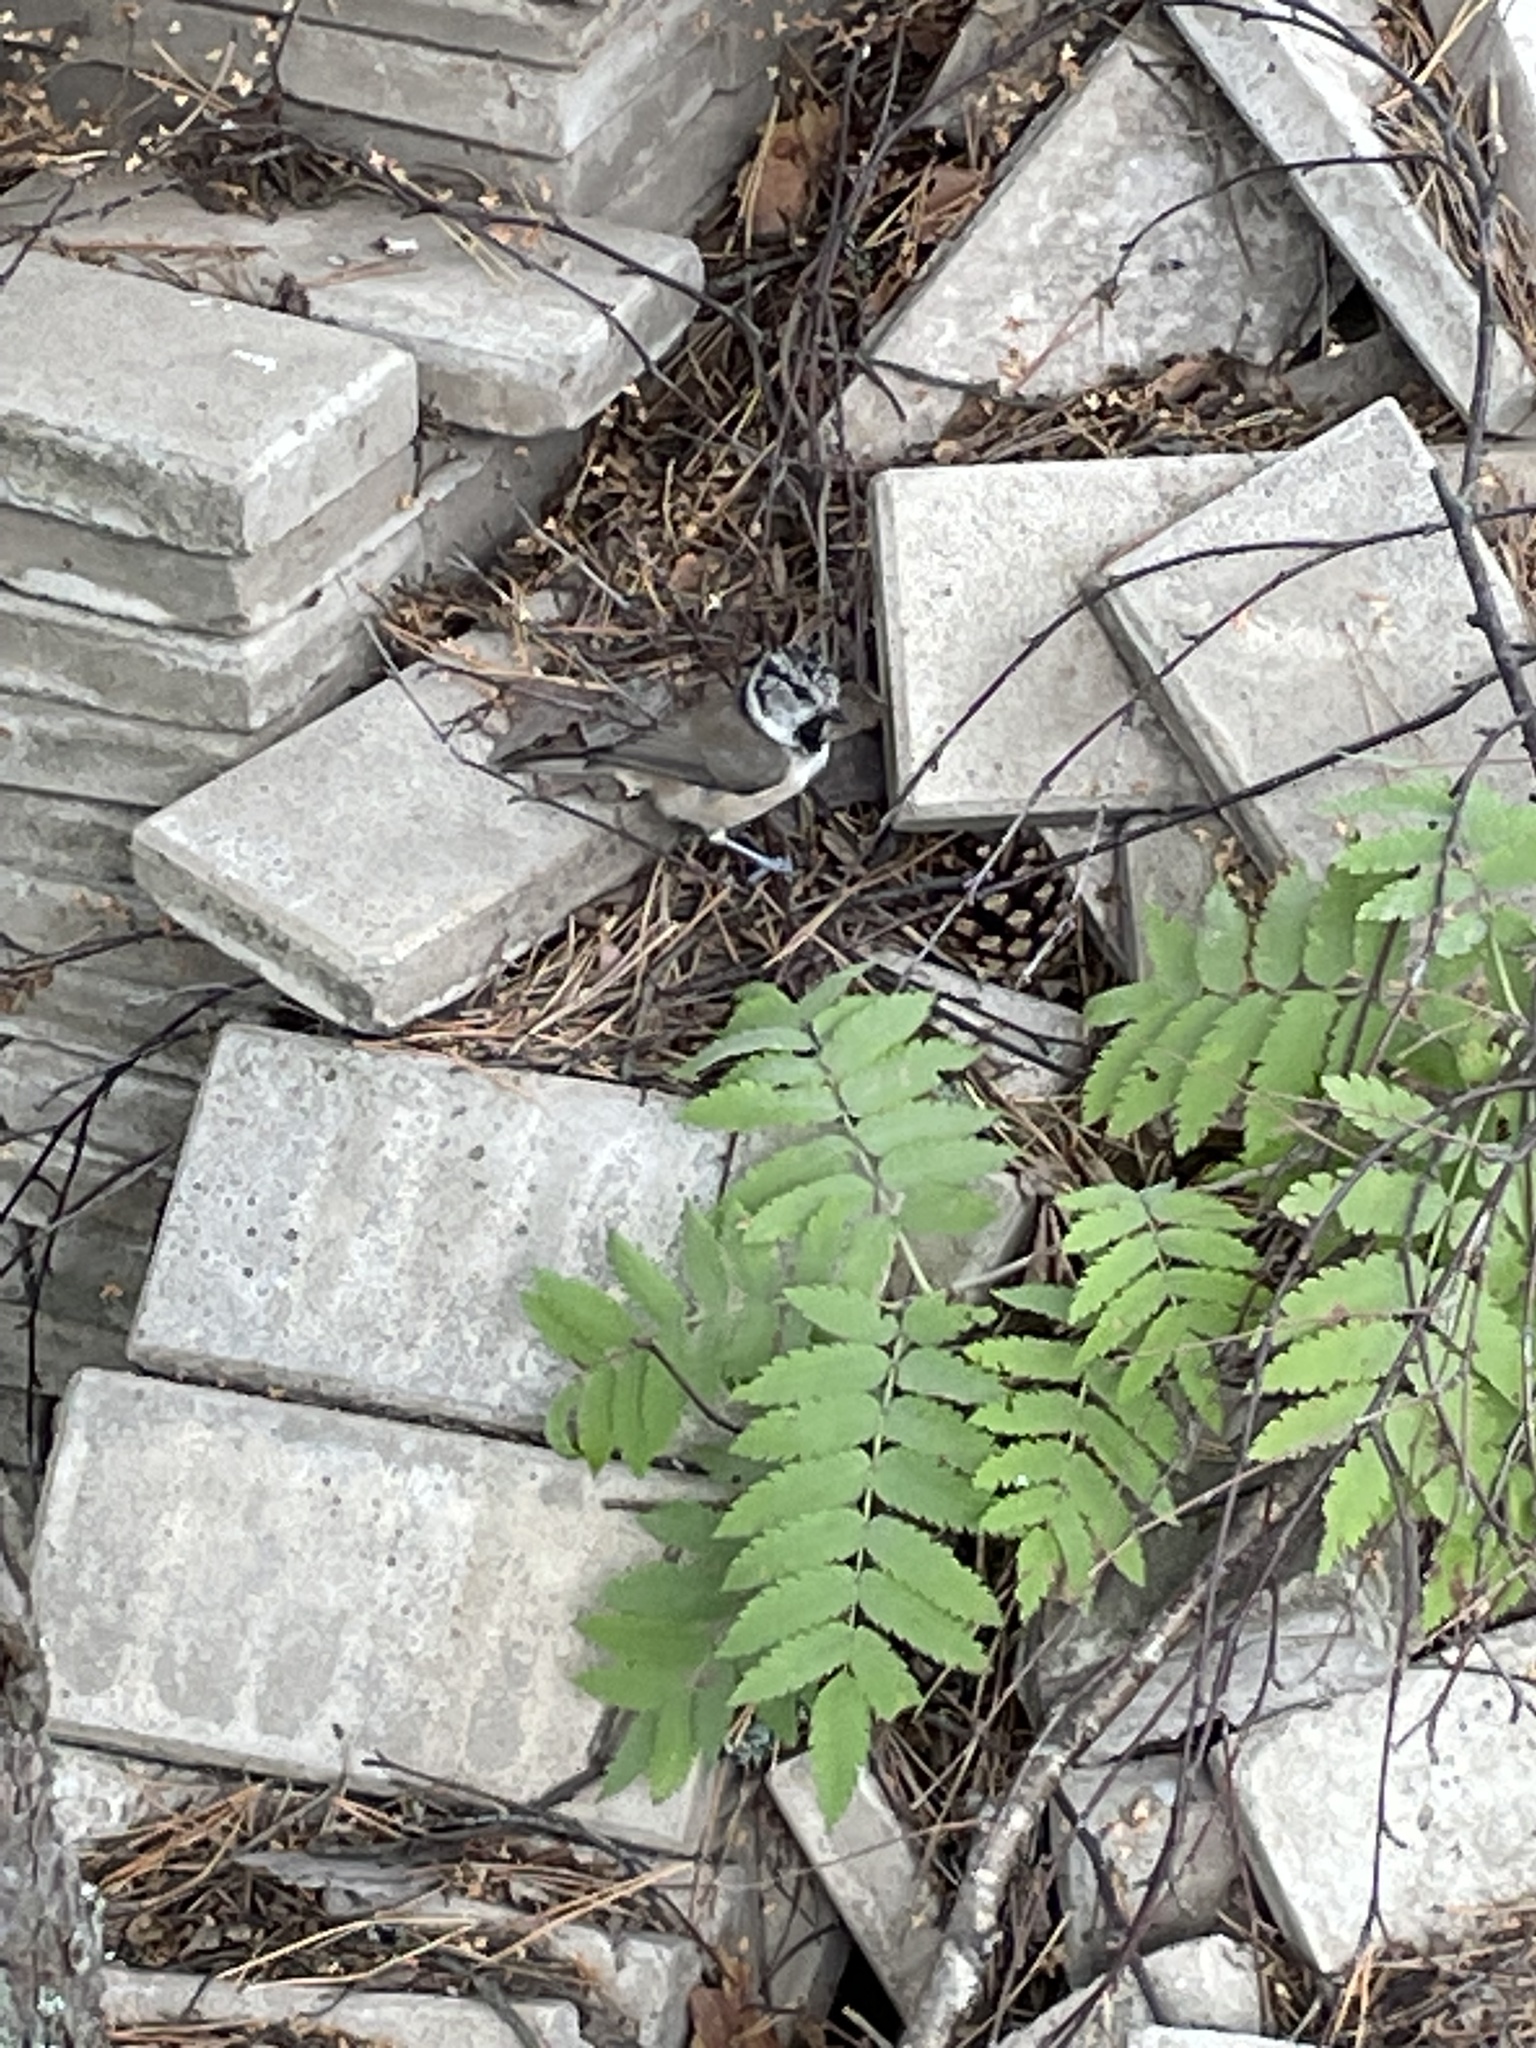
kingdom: Animalia
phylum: Chordata
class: Aves
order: Passeriformes
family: Paridae
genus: Lophophanes
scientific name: Lophophanes cristatus
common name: European crested tit
